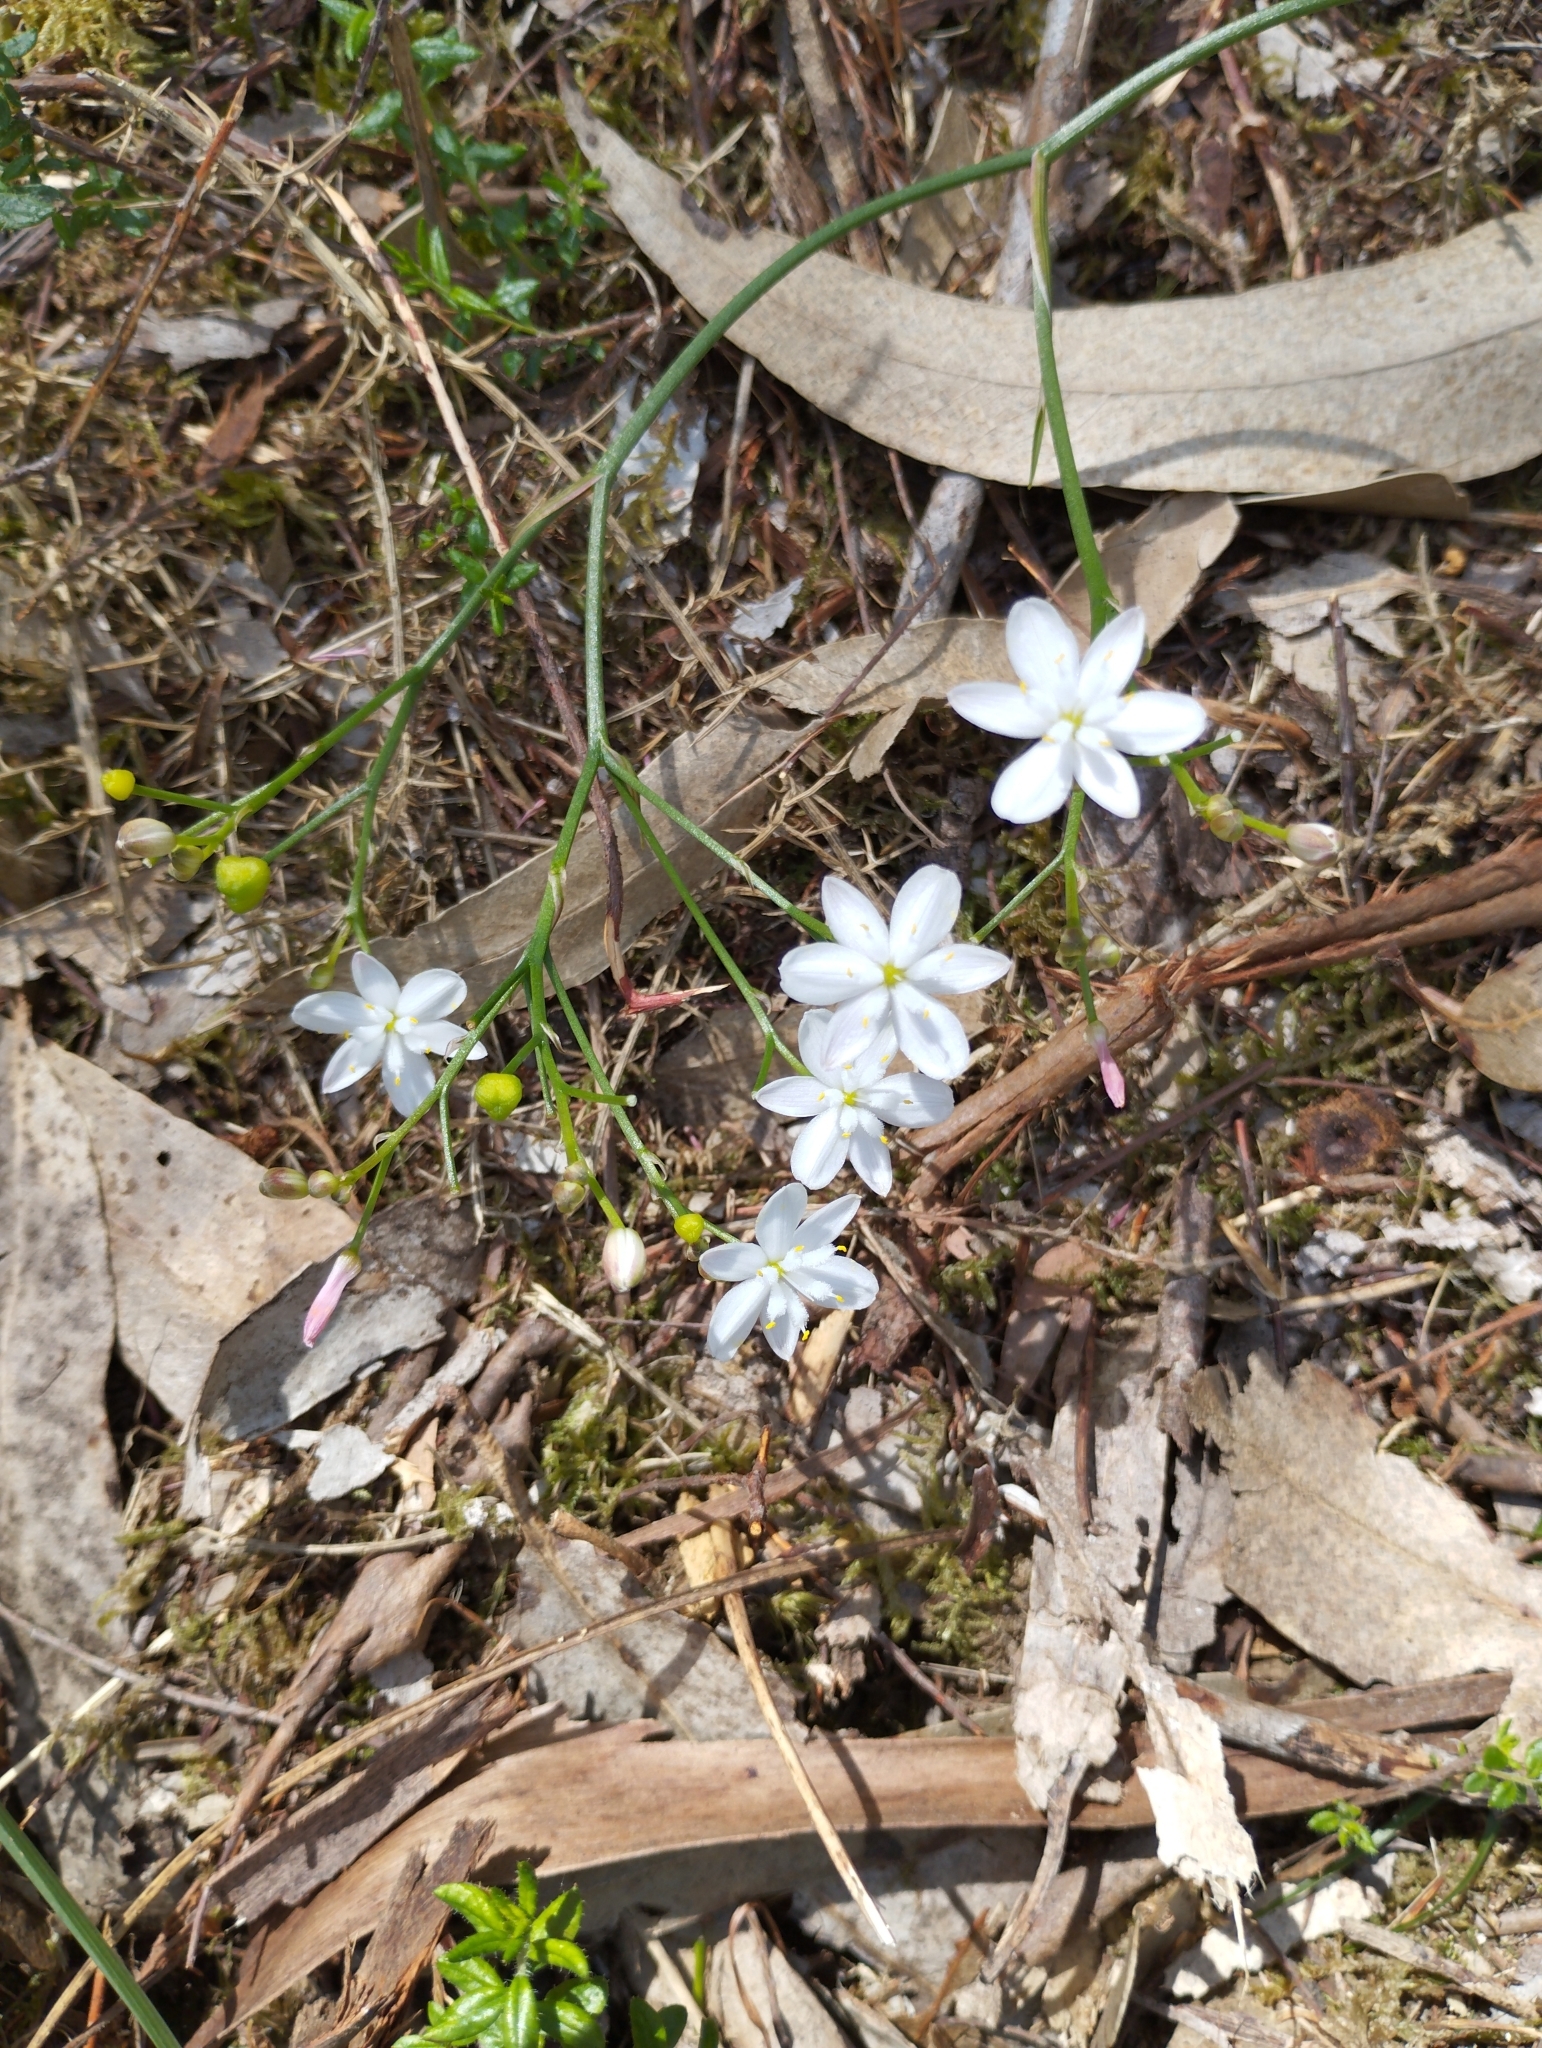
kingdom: Plantae
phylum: Tracheophyta
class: Liliopsida
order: Asparagales
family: Asphodelaceae
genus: Simethis
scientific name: Simethis mattiazzii
